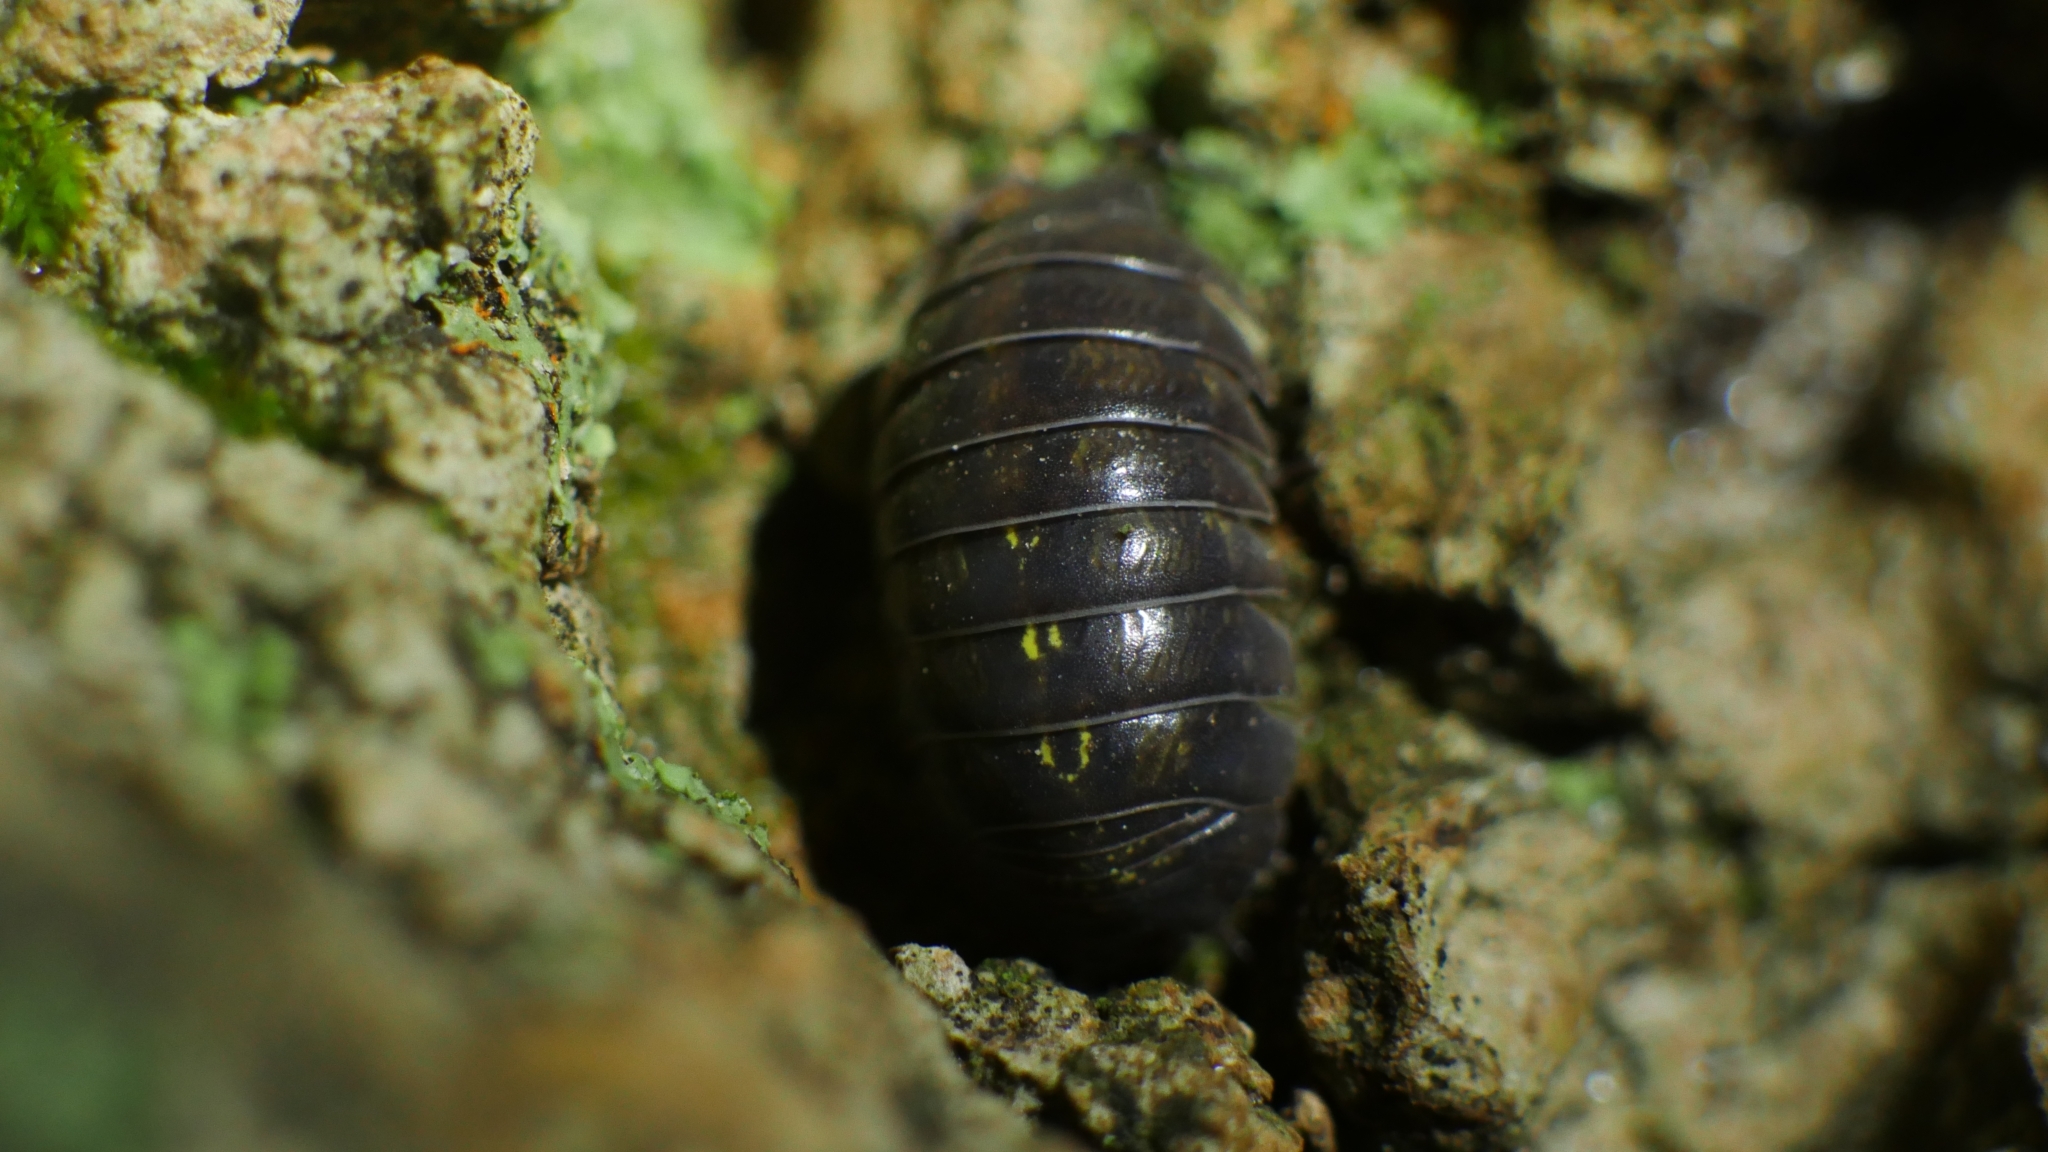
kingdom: Animalia
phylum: Arthropoda
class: Malacostraca
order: Isopoda
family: Armadillidiidae
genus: Armadillidium
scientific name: Armadillidium vulgare
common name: Common pill woodlouse
